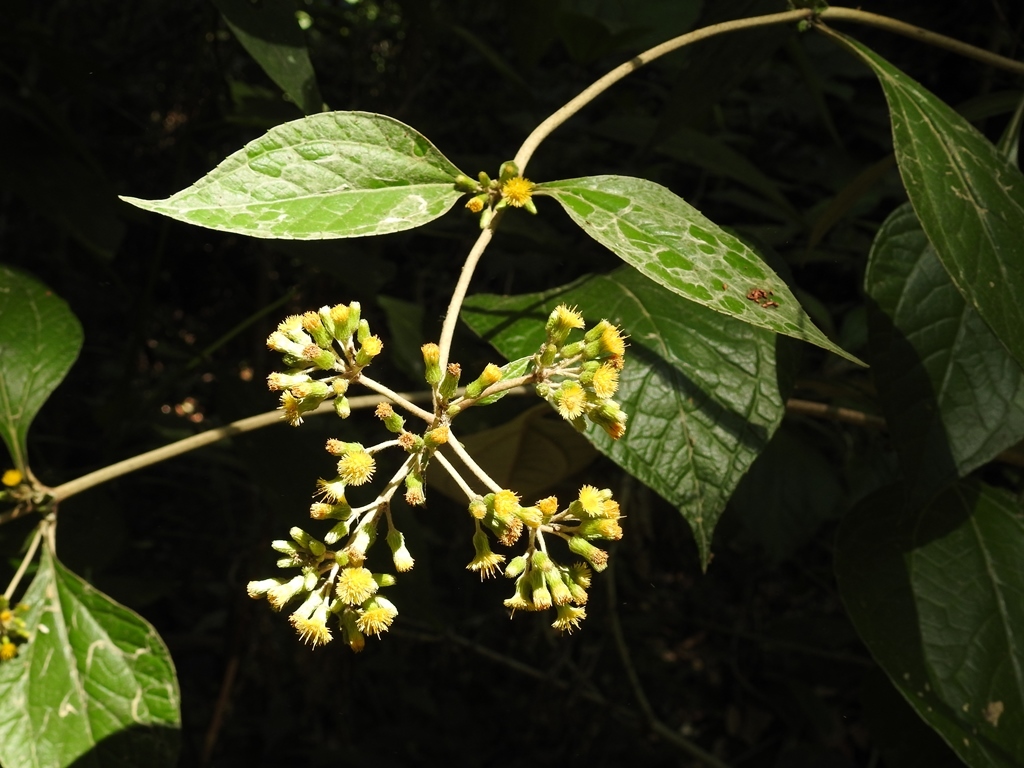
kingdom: Plantae
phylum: Tracheophyta
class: Magnoliopsida
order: Asterales
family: Asteraceae
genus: Liabum
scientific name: Liabum asclepiadeum
